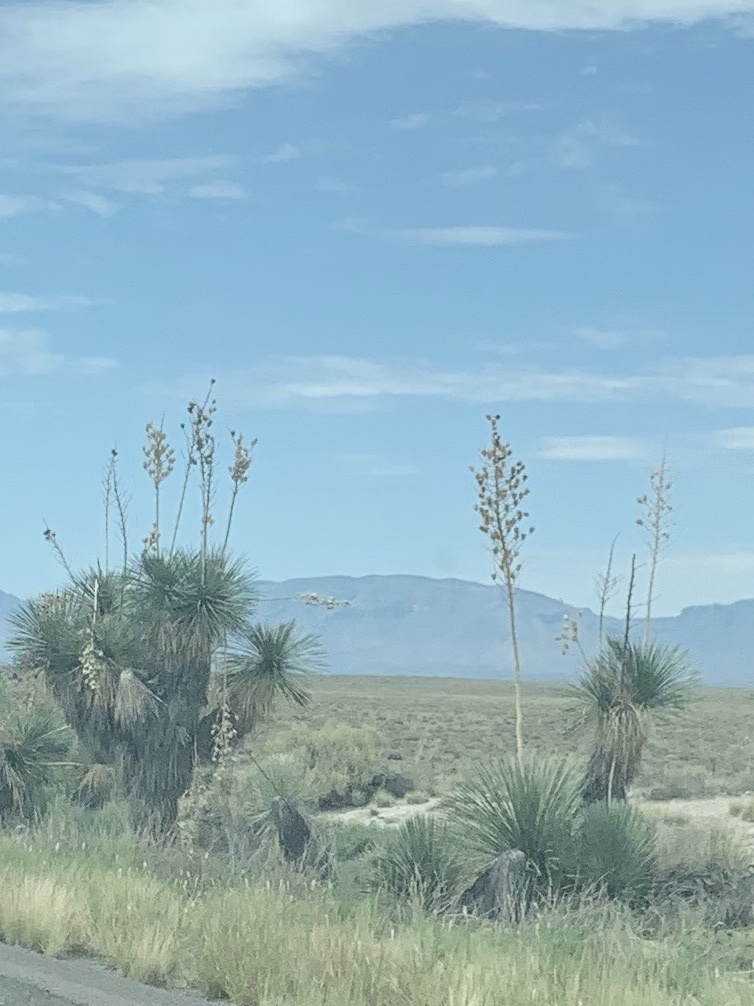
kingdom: Plantae
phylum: Tracheophyta
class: Liliopsida
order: Asparagales
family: Asparagaceae
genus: Yucca
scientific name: Yucca elata
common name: Palmella
